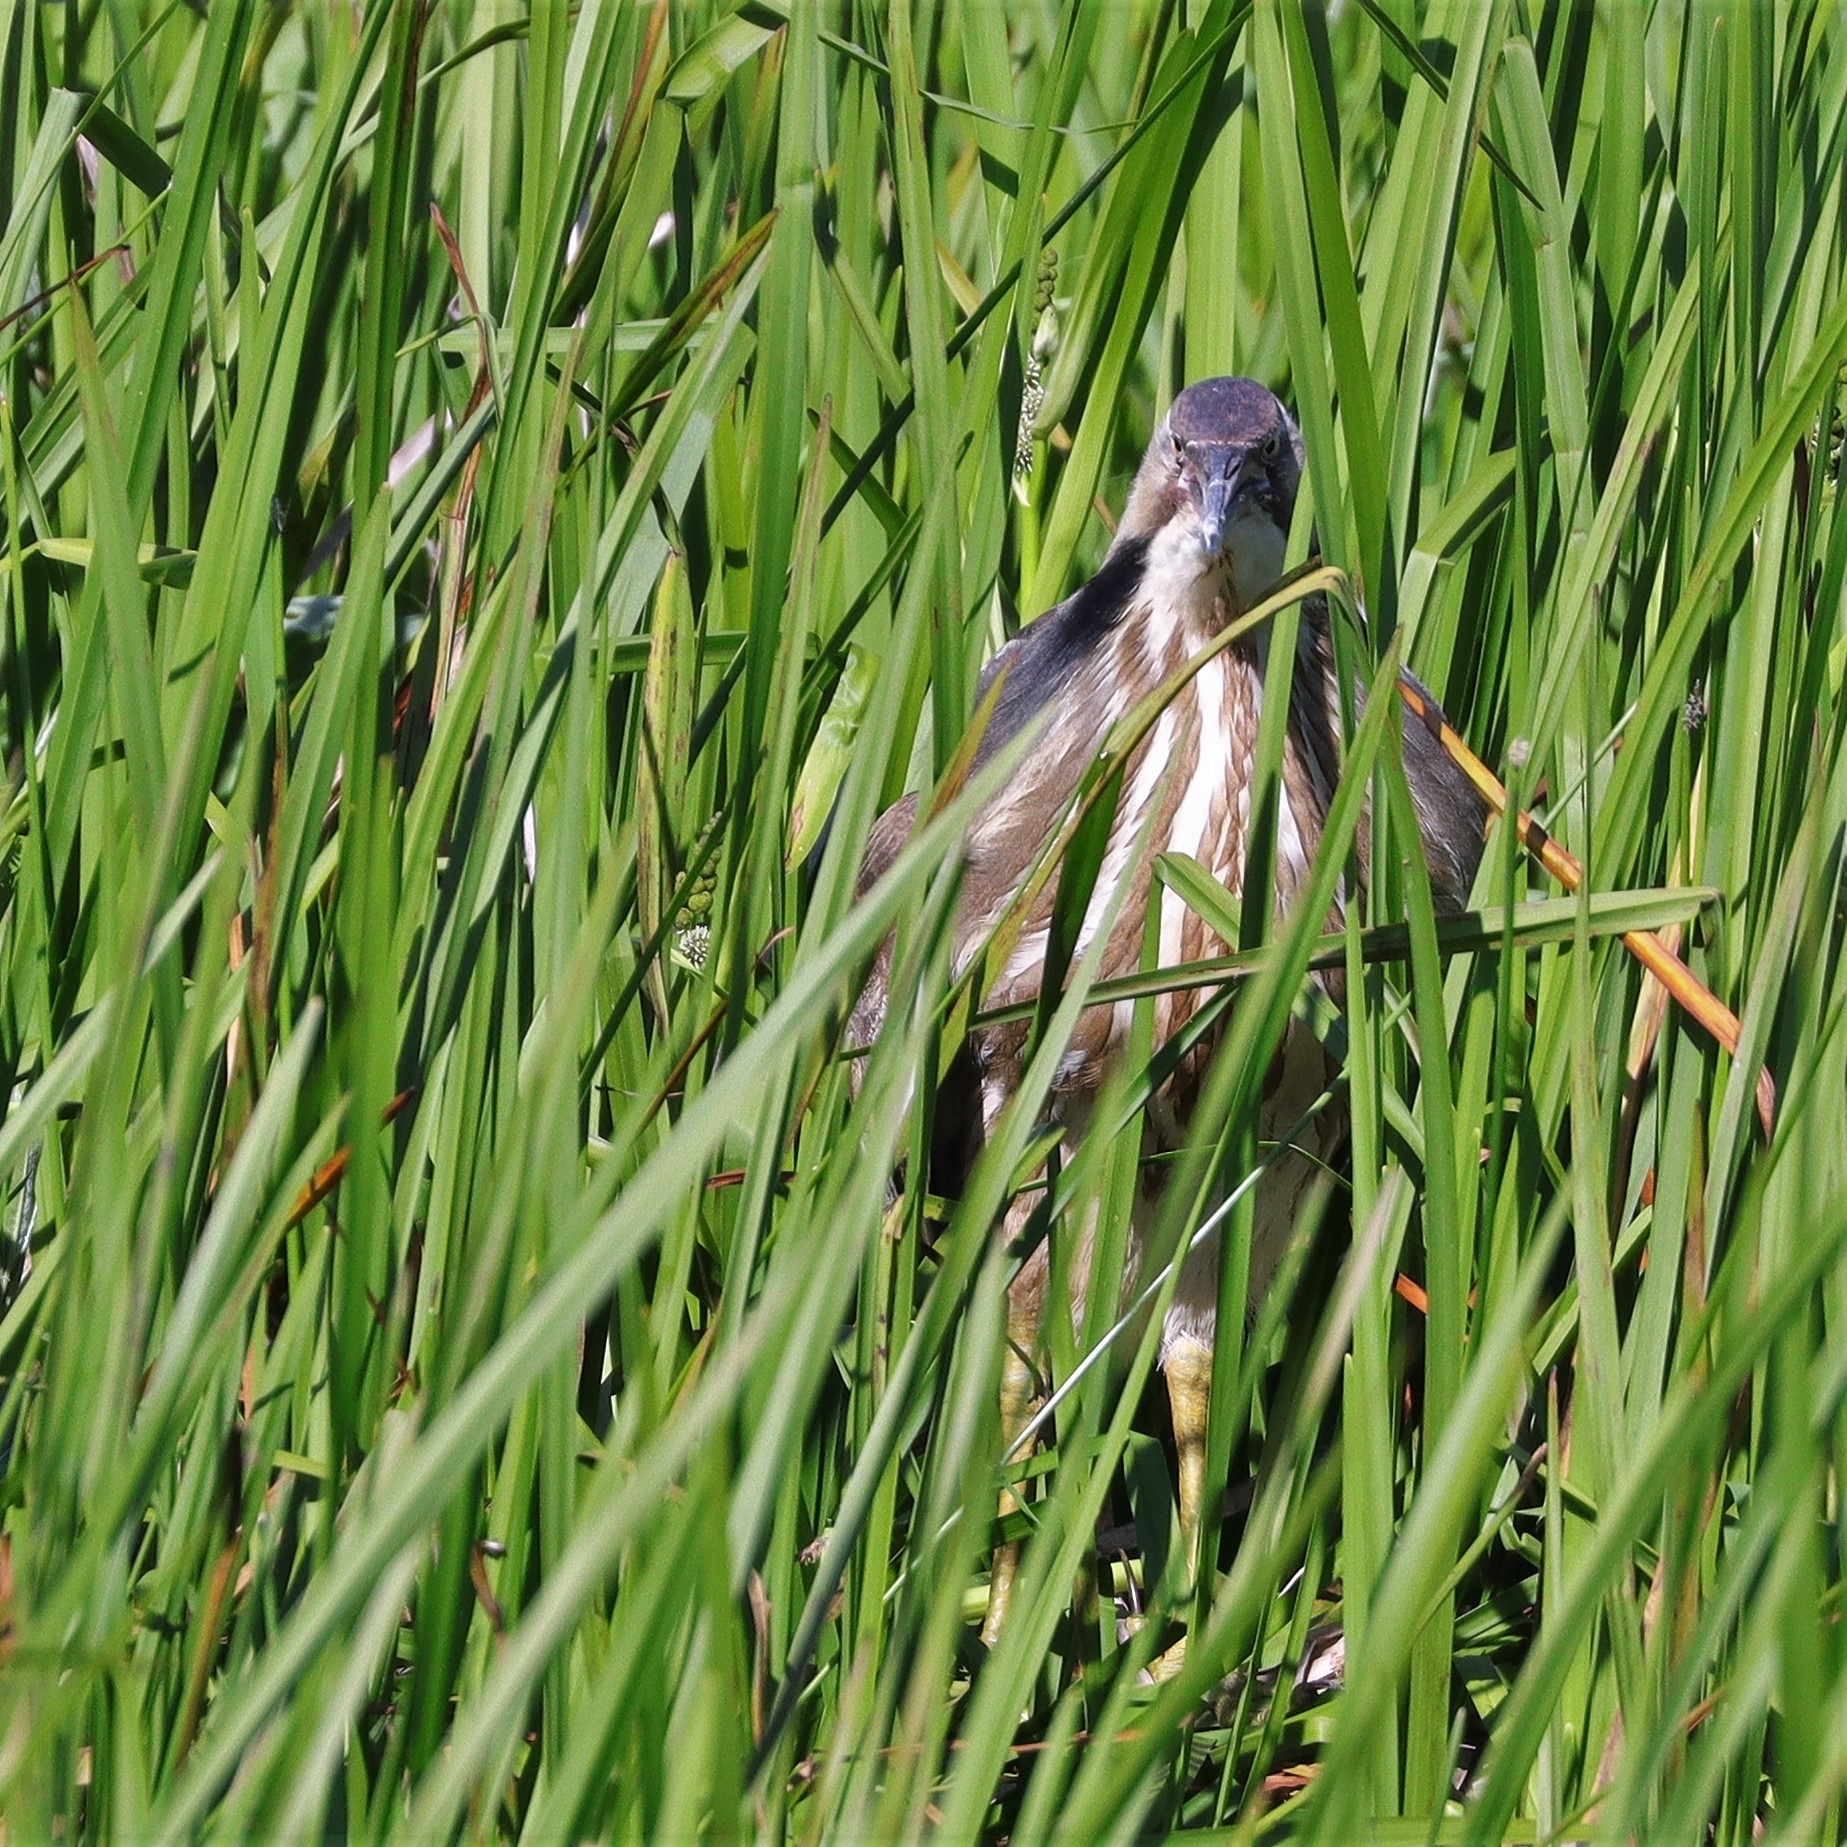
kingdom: Animalia
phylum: Chordata
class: Aves
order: Pelecaniformes
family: Ardeidae
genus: Botaurus
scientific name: Botaurus lentiginosus
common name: American bittern
